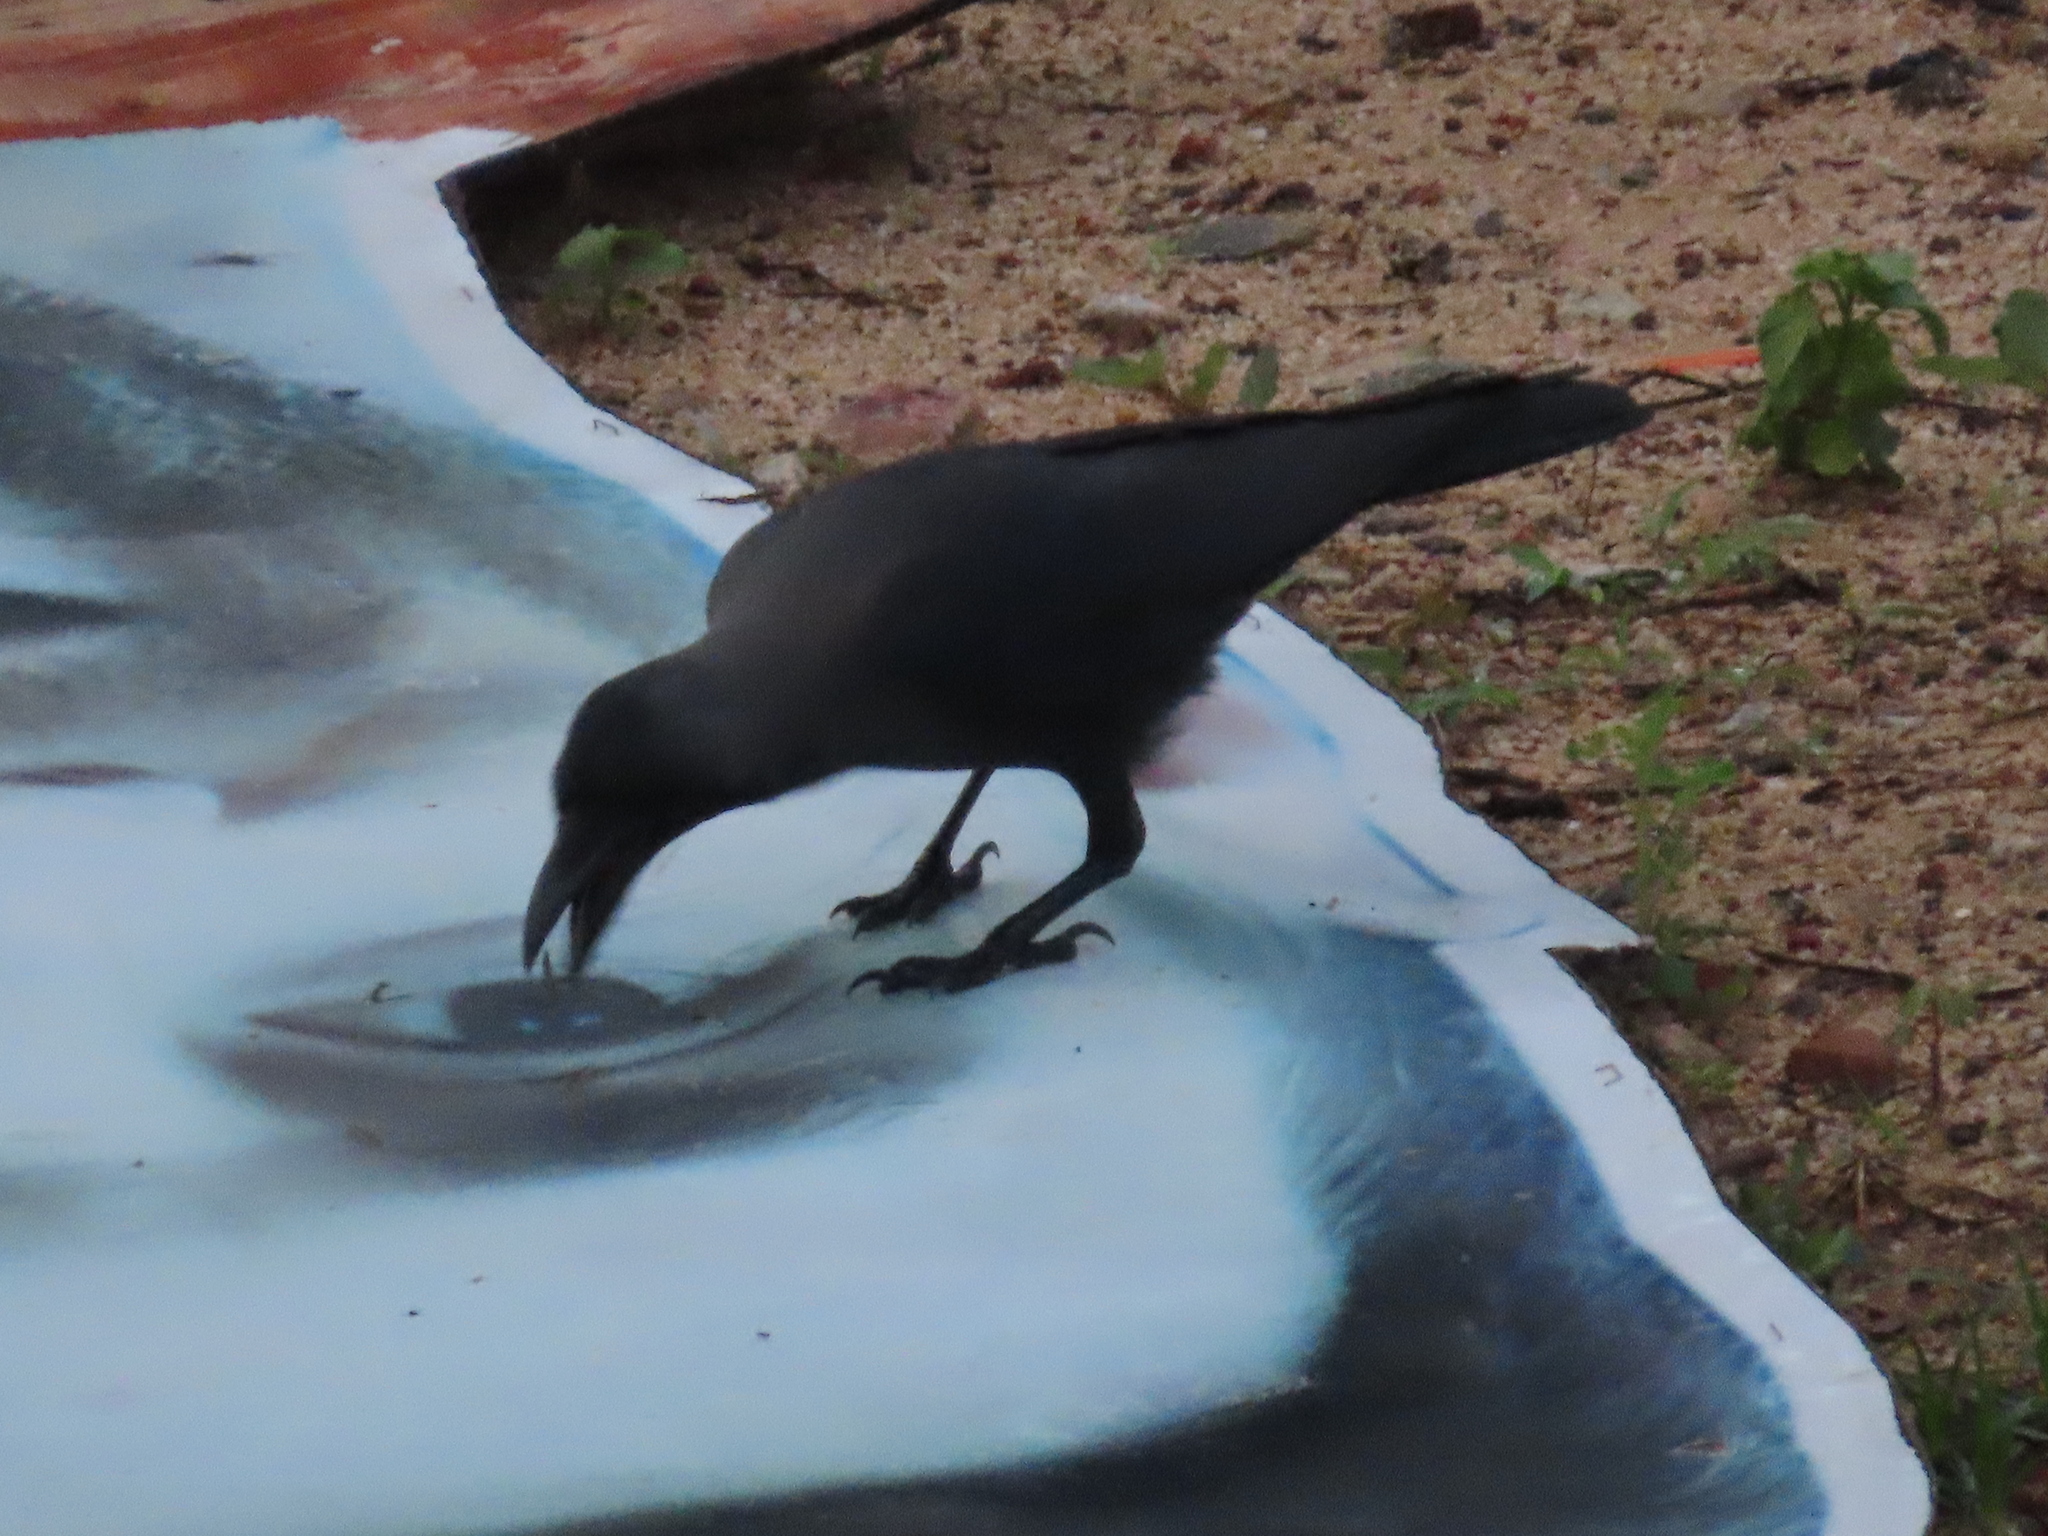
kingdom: Animalia
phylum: Chordata
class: Aves
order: Passeriformes
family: Corvidae
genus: Corvus
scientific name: Corvus splendens
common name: House crow
